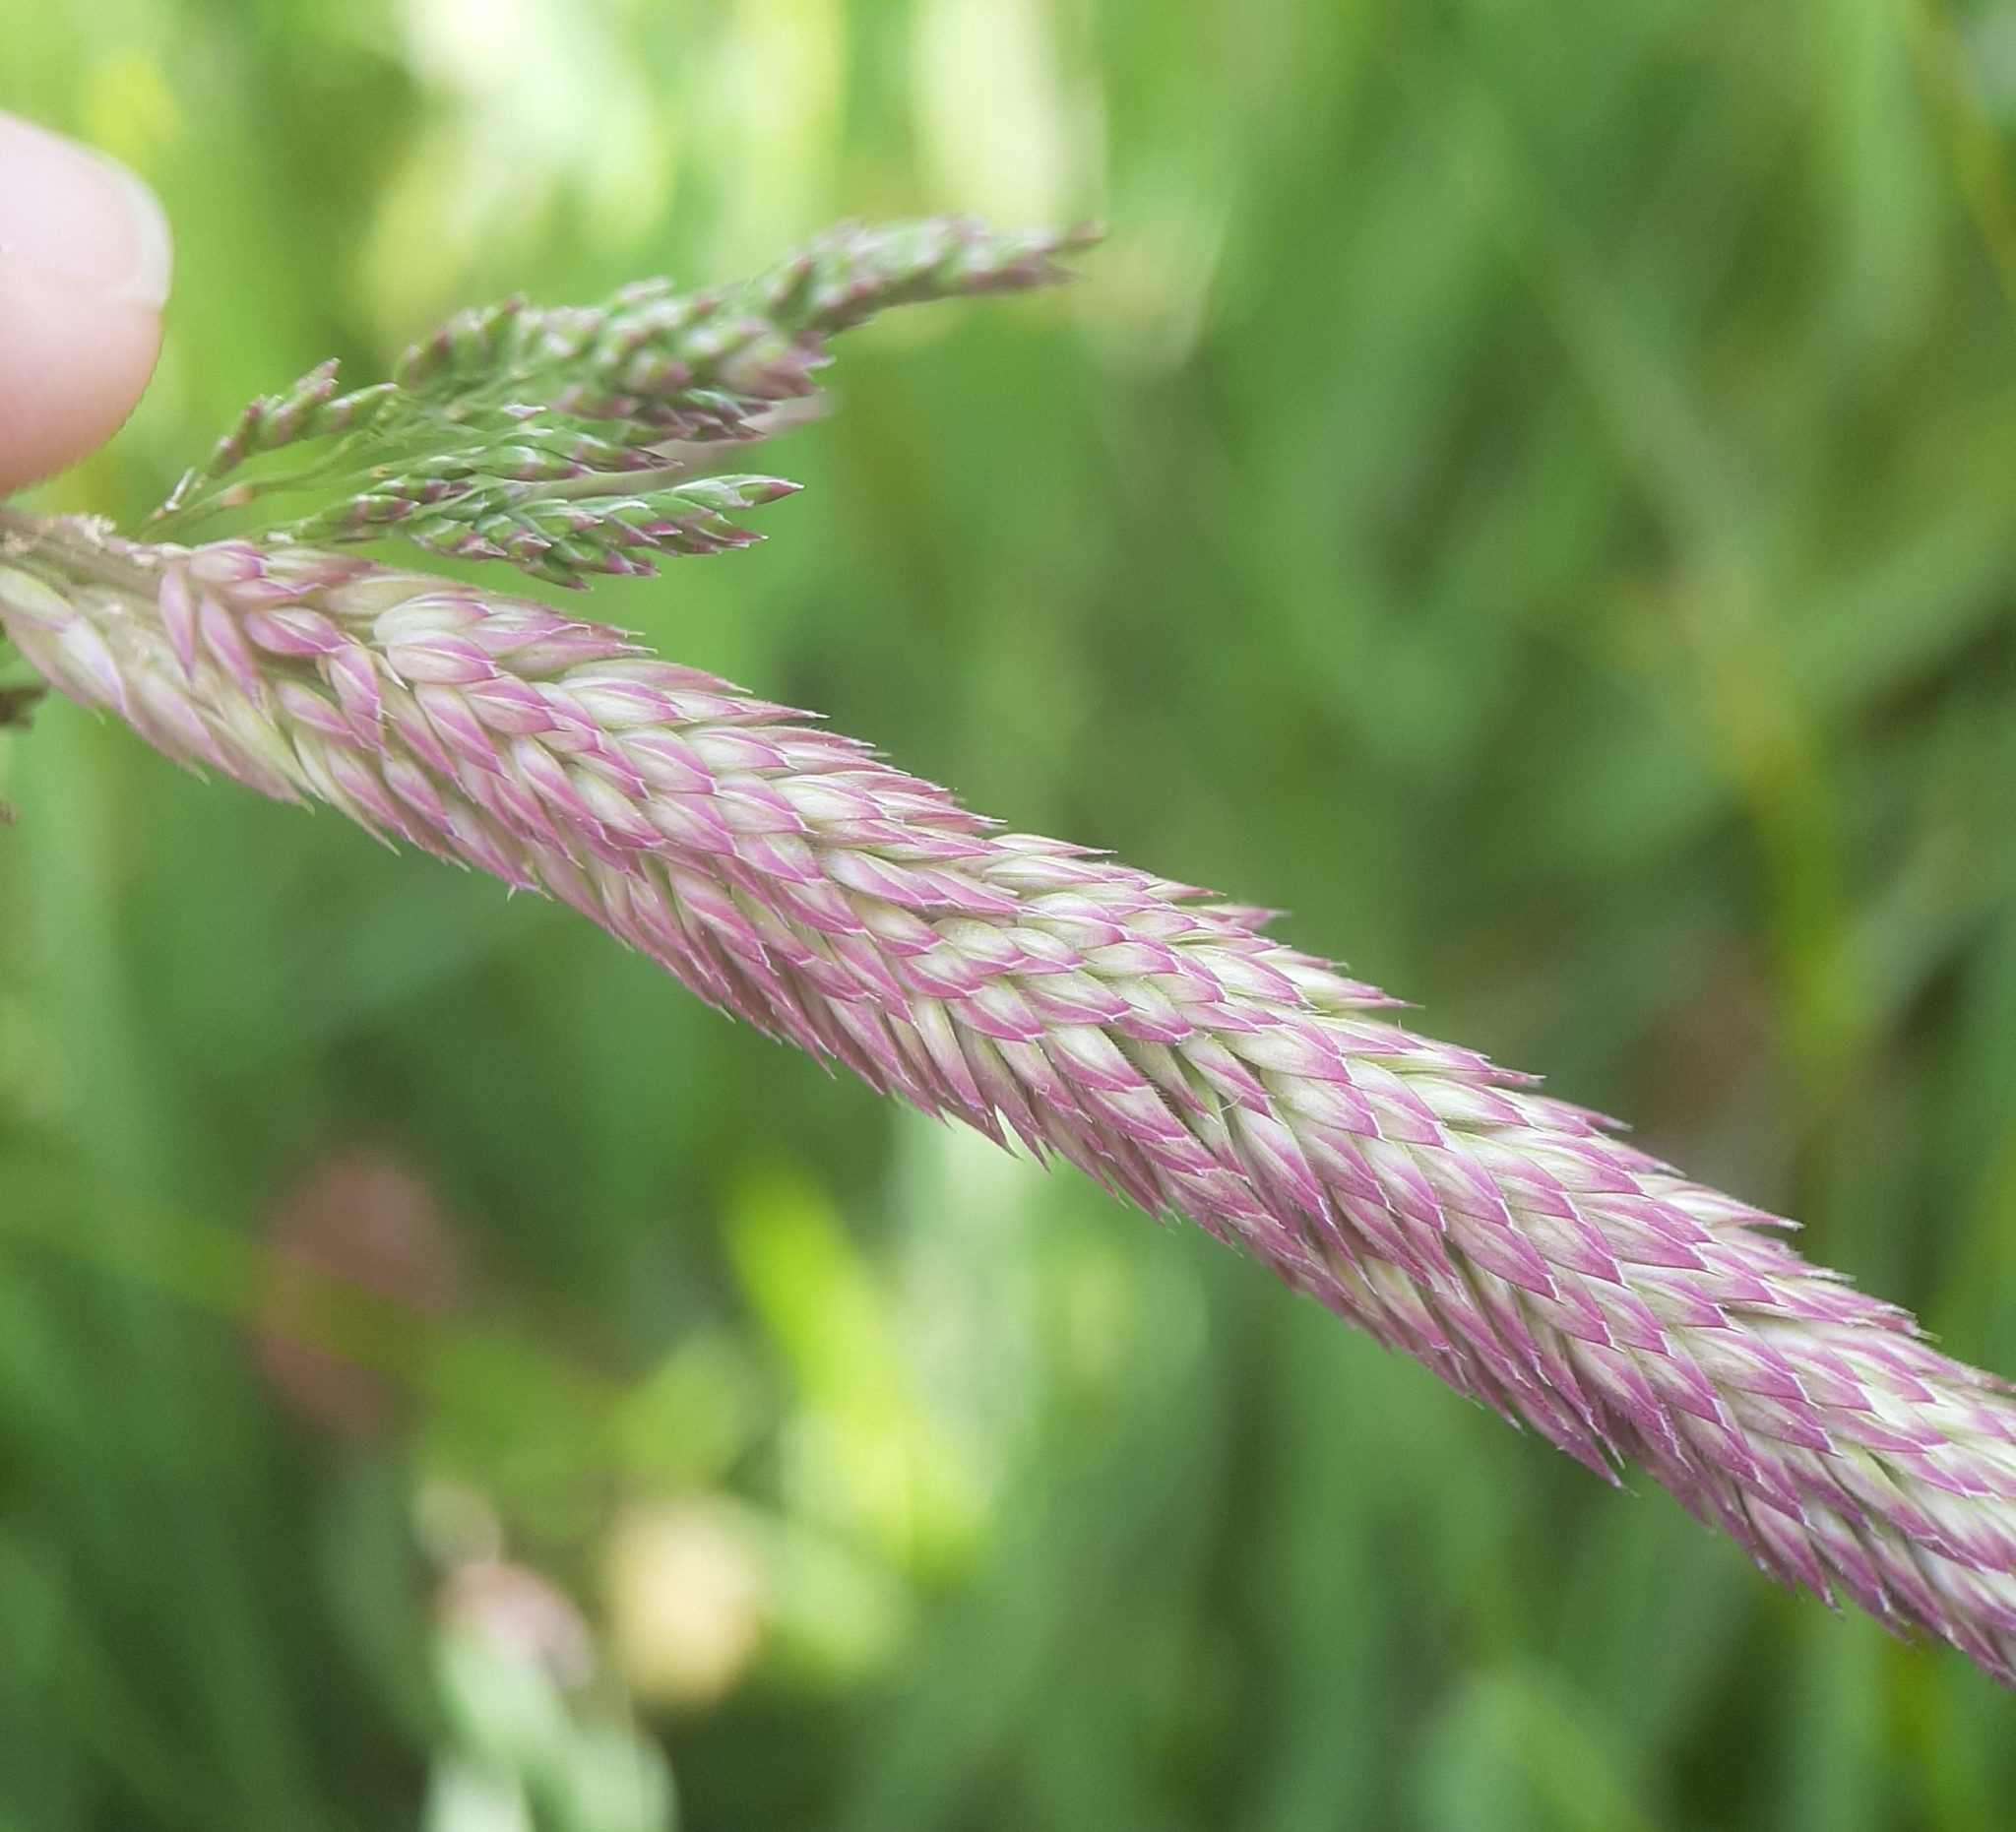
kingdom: Plantae
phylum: Tracheophyta
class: Liliopsida
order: Poales
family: Poaceae
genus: Holcus
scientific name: Holcus lanatus
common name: Yorkshire-fog
